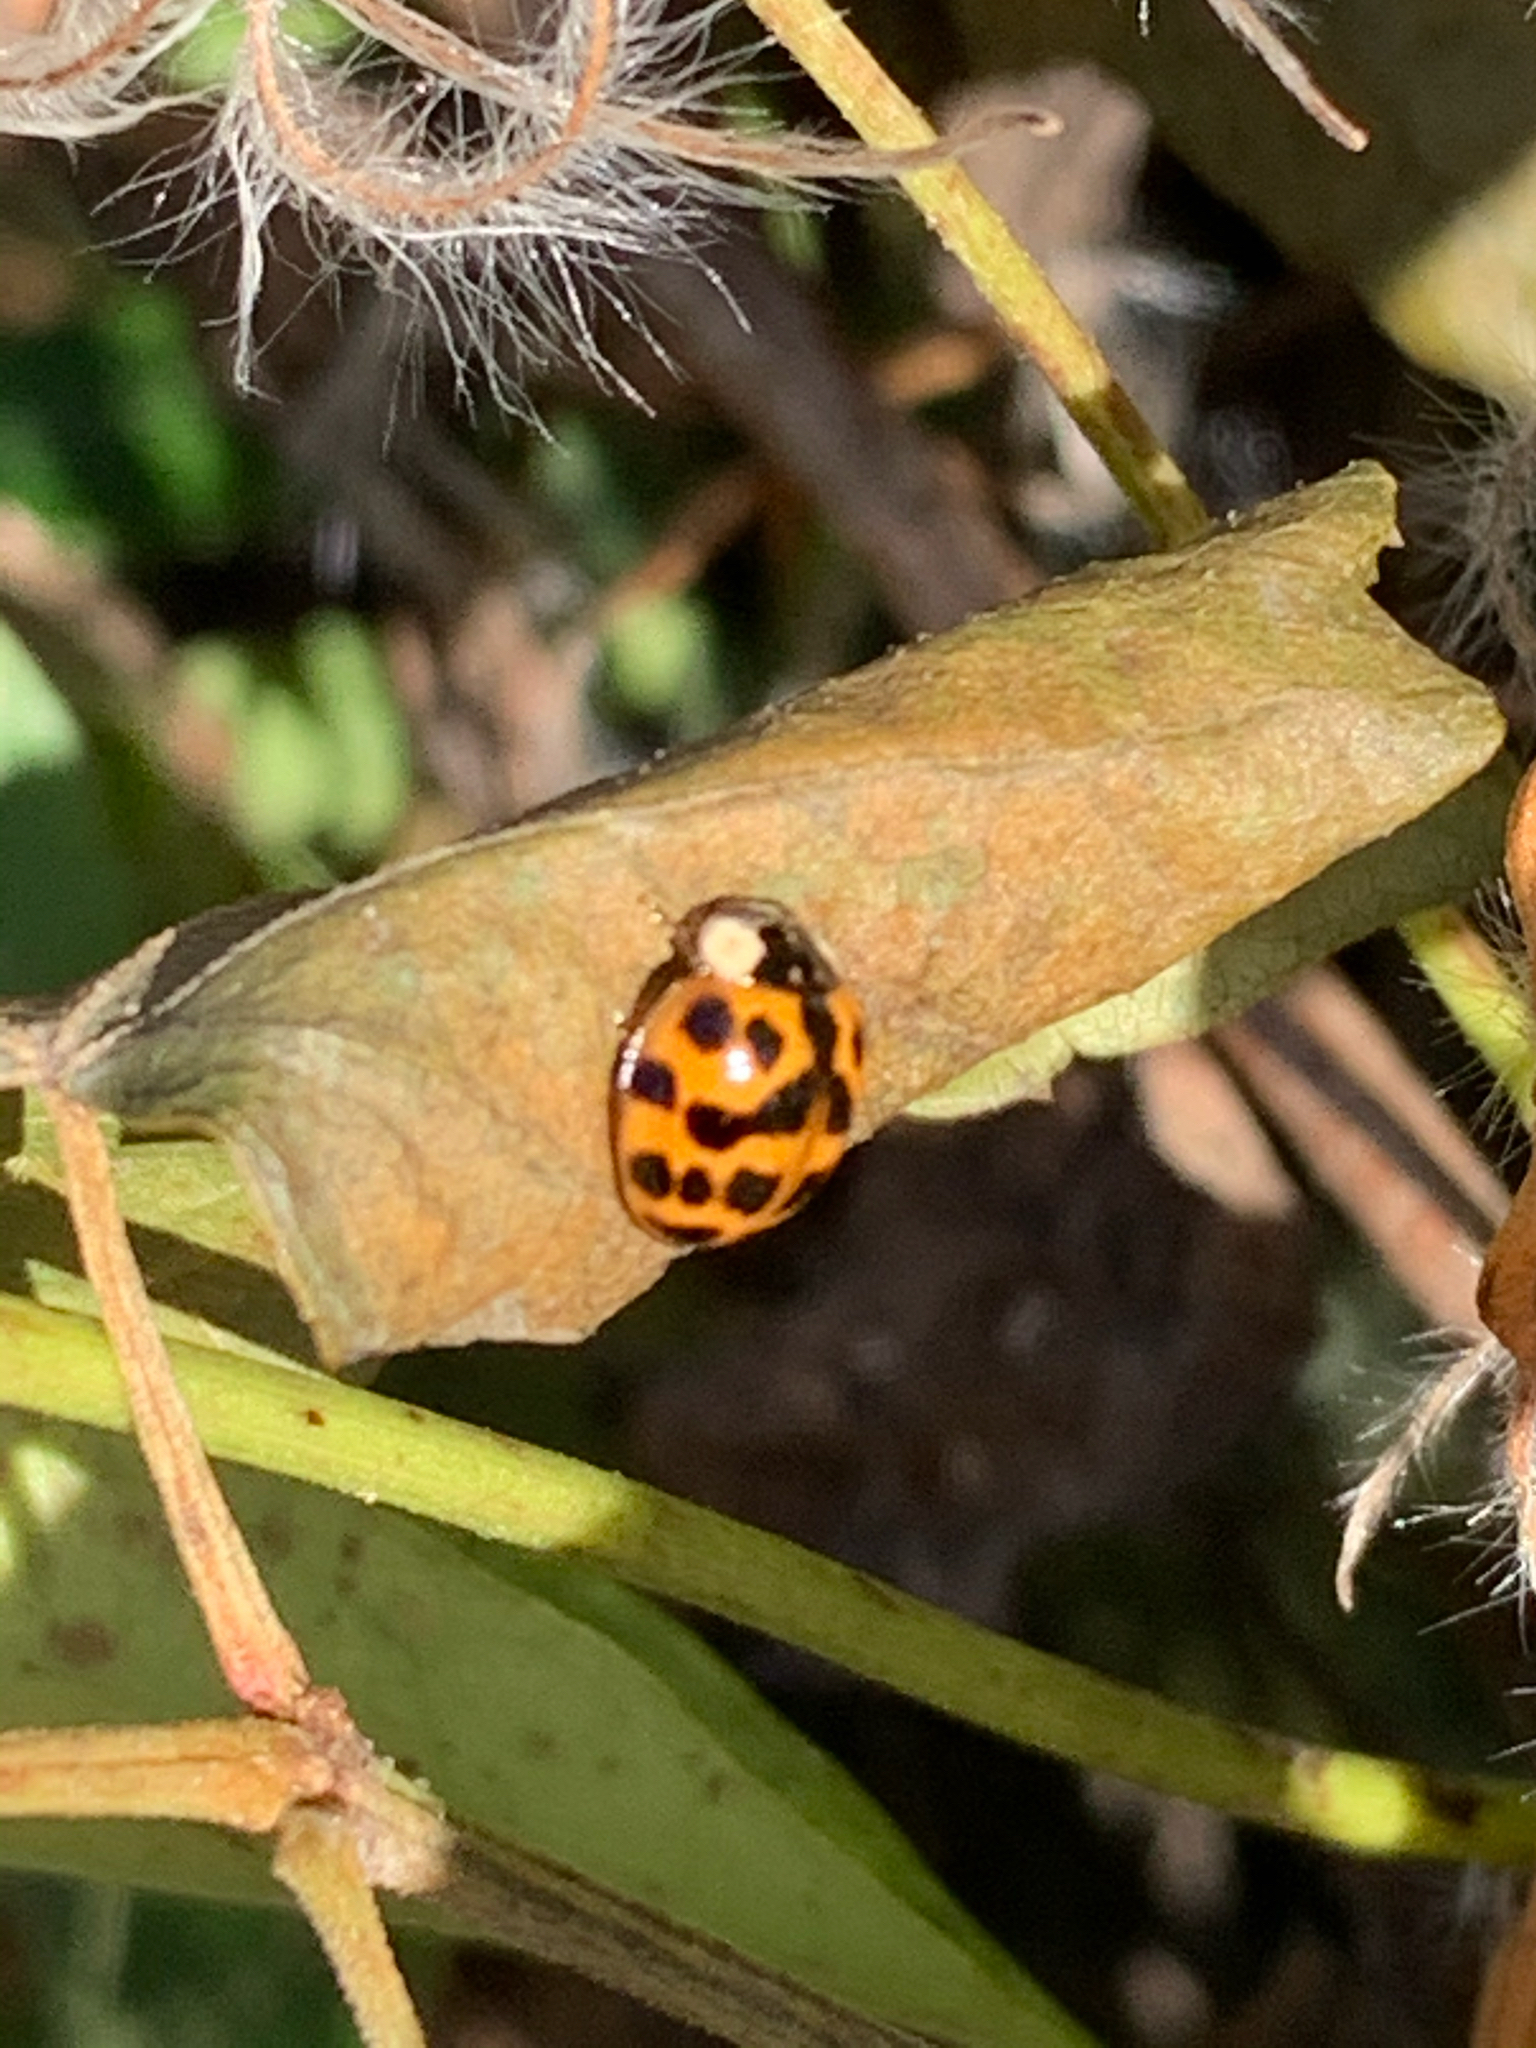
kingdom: Animalia
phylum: Arthropoda
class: Insecta
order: Coleoptera
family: Coccinellidae
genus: Harmonia
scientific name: Harmonia axyridis
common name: Harlequin ladybird
